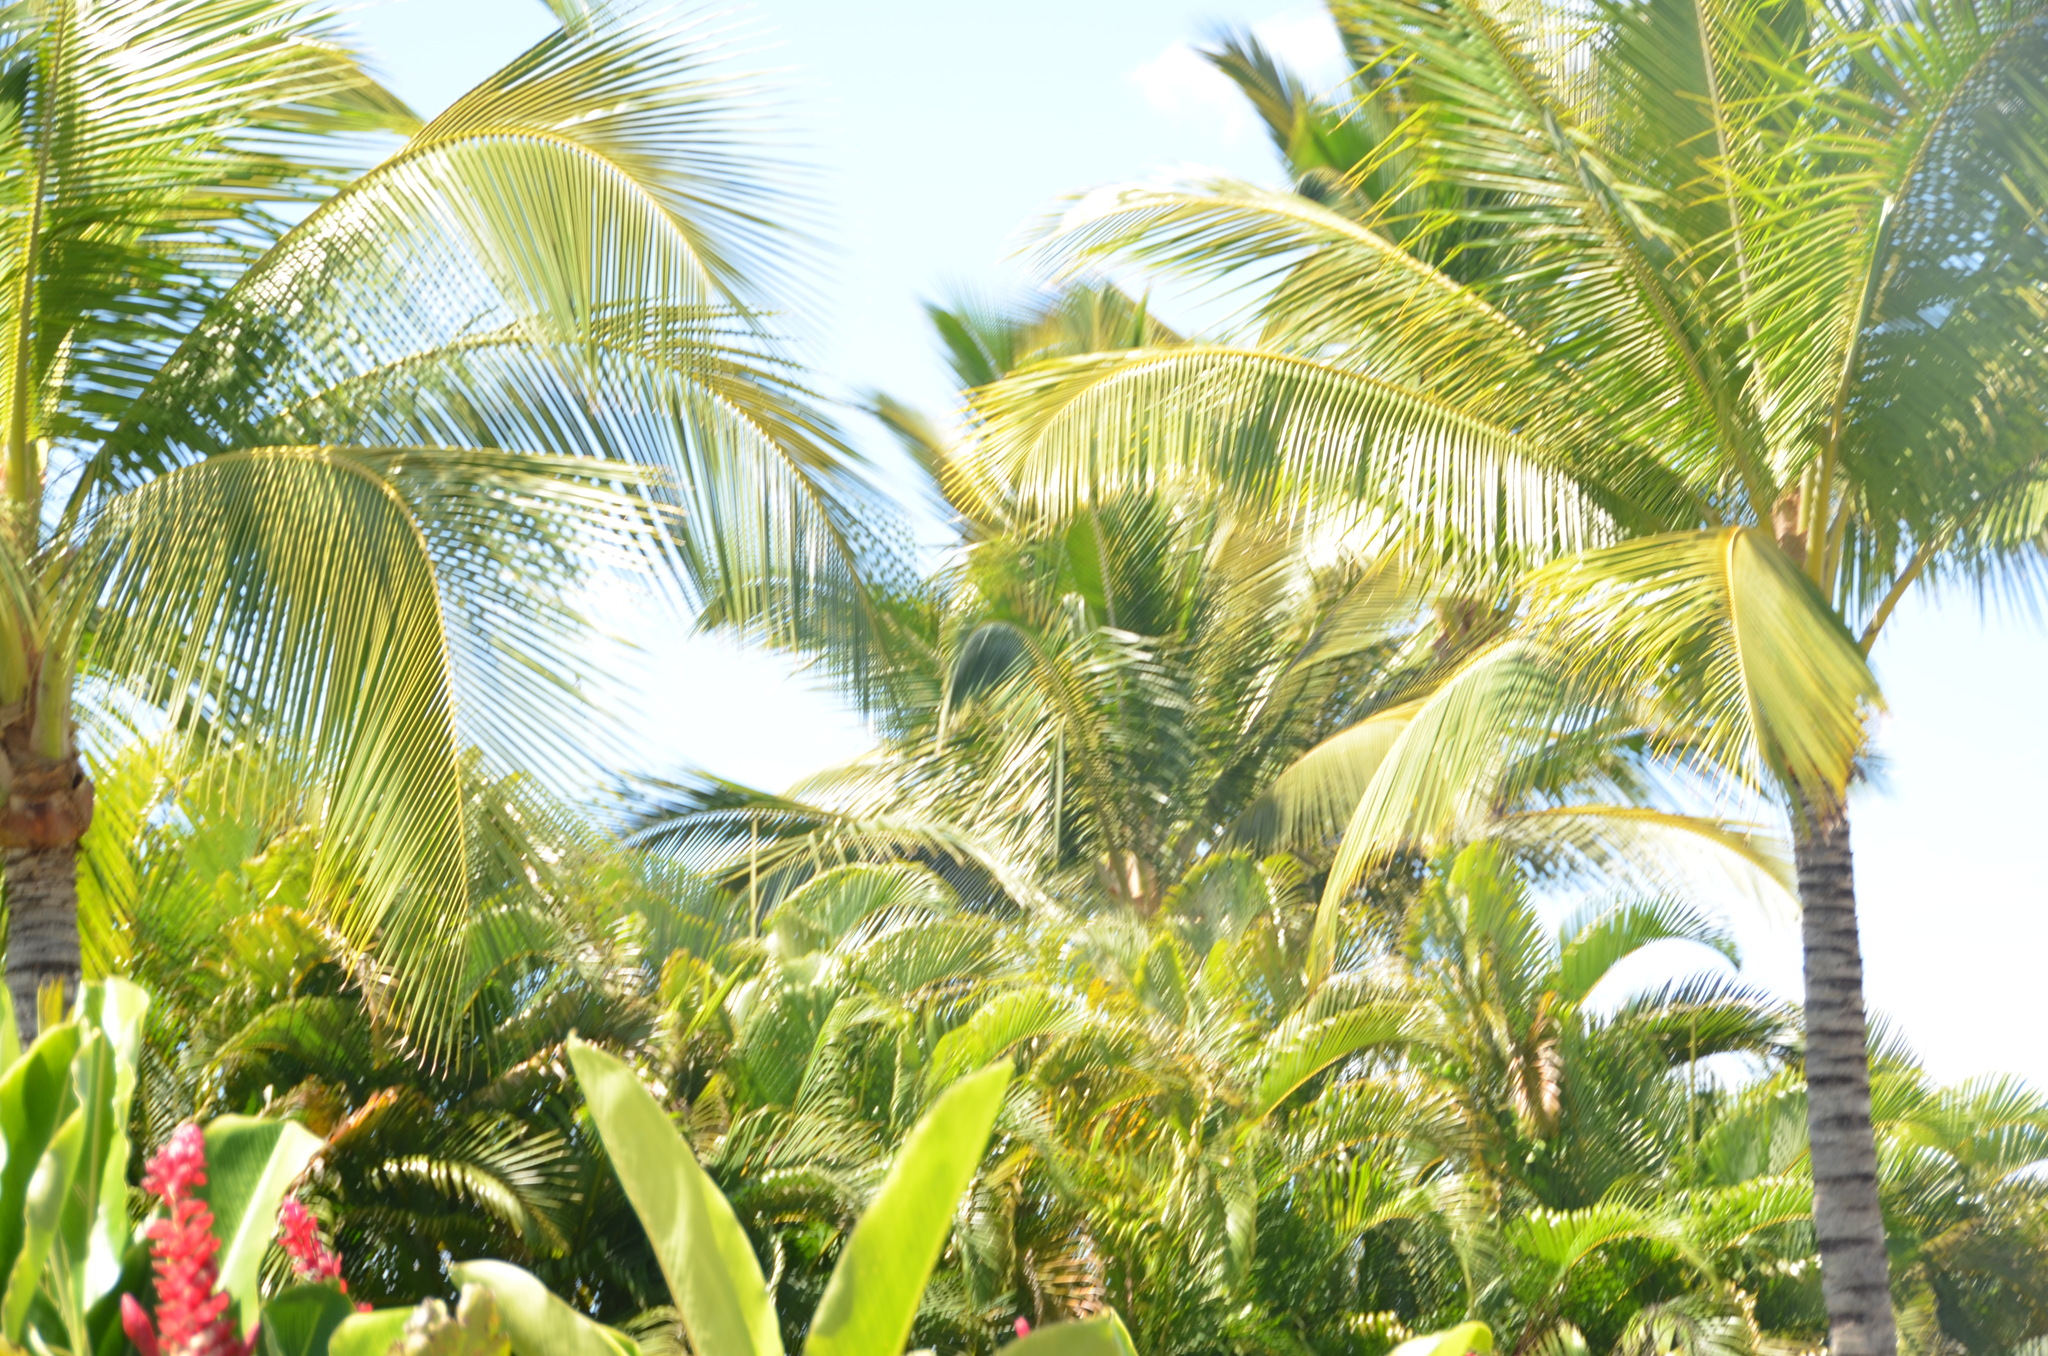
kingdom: Plantae
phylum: Tracheophyta
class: Liliopsida
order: Arecales
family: Arecaceae
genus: Cocos
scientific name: Cocos nucifera
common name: Coconut palm
